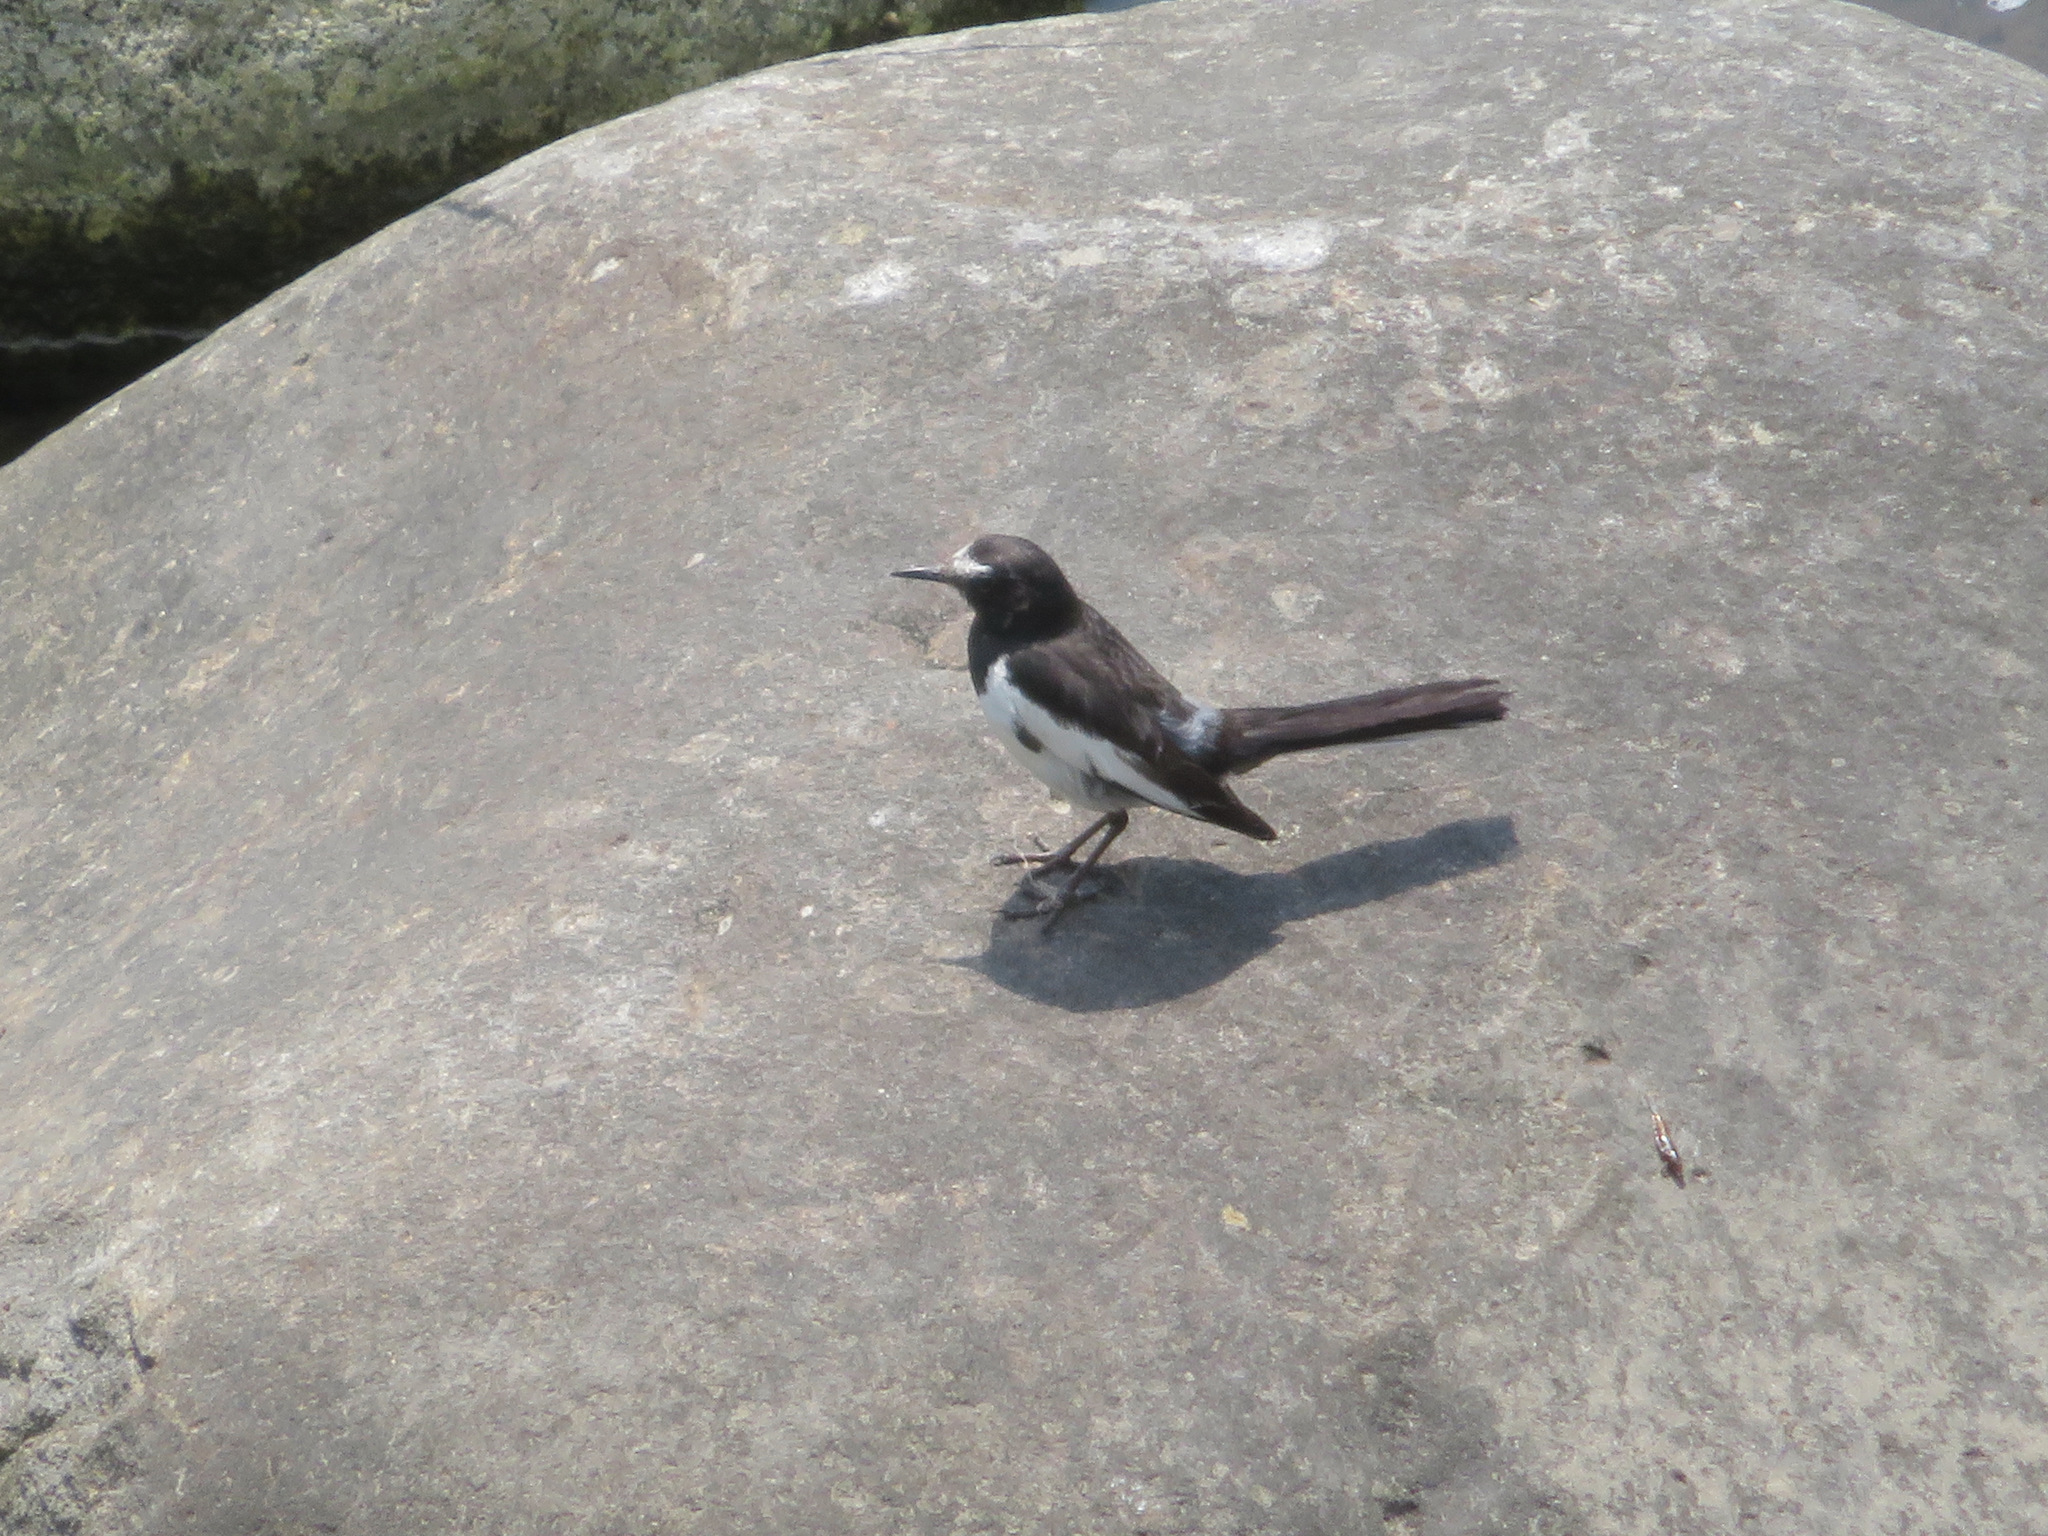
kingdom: Animalia
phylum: Chordata
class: Aves
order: Passeriformes
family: Motacillidae
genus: Motacilla
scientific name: Motacilla grandis
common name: Japanese wagtail
